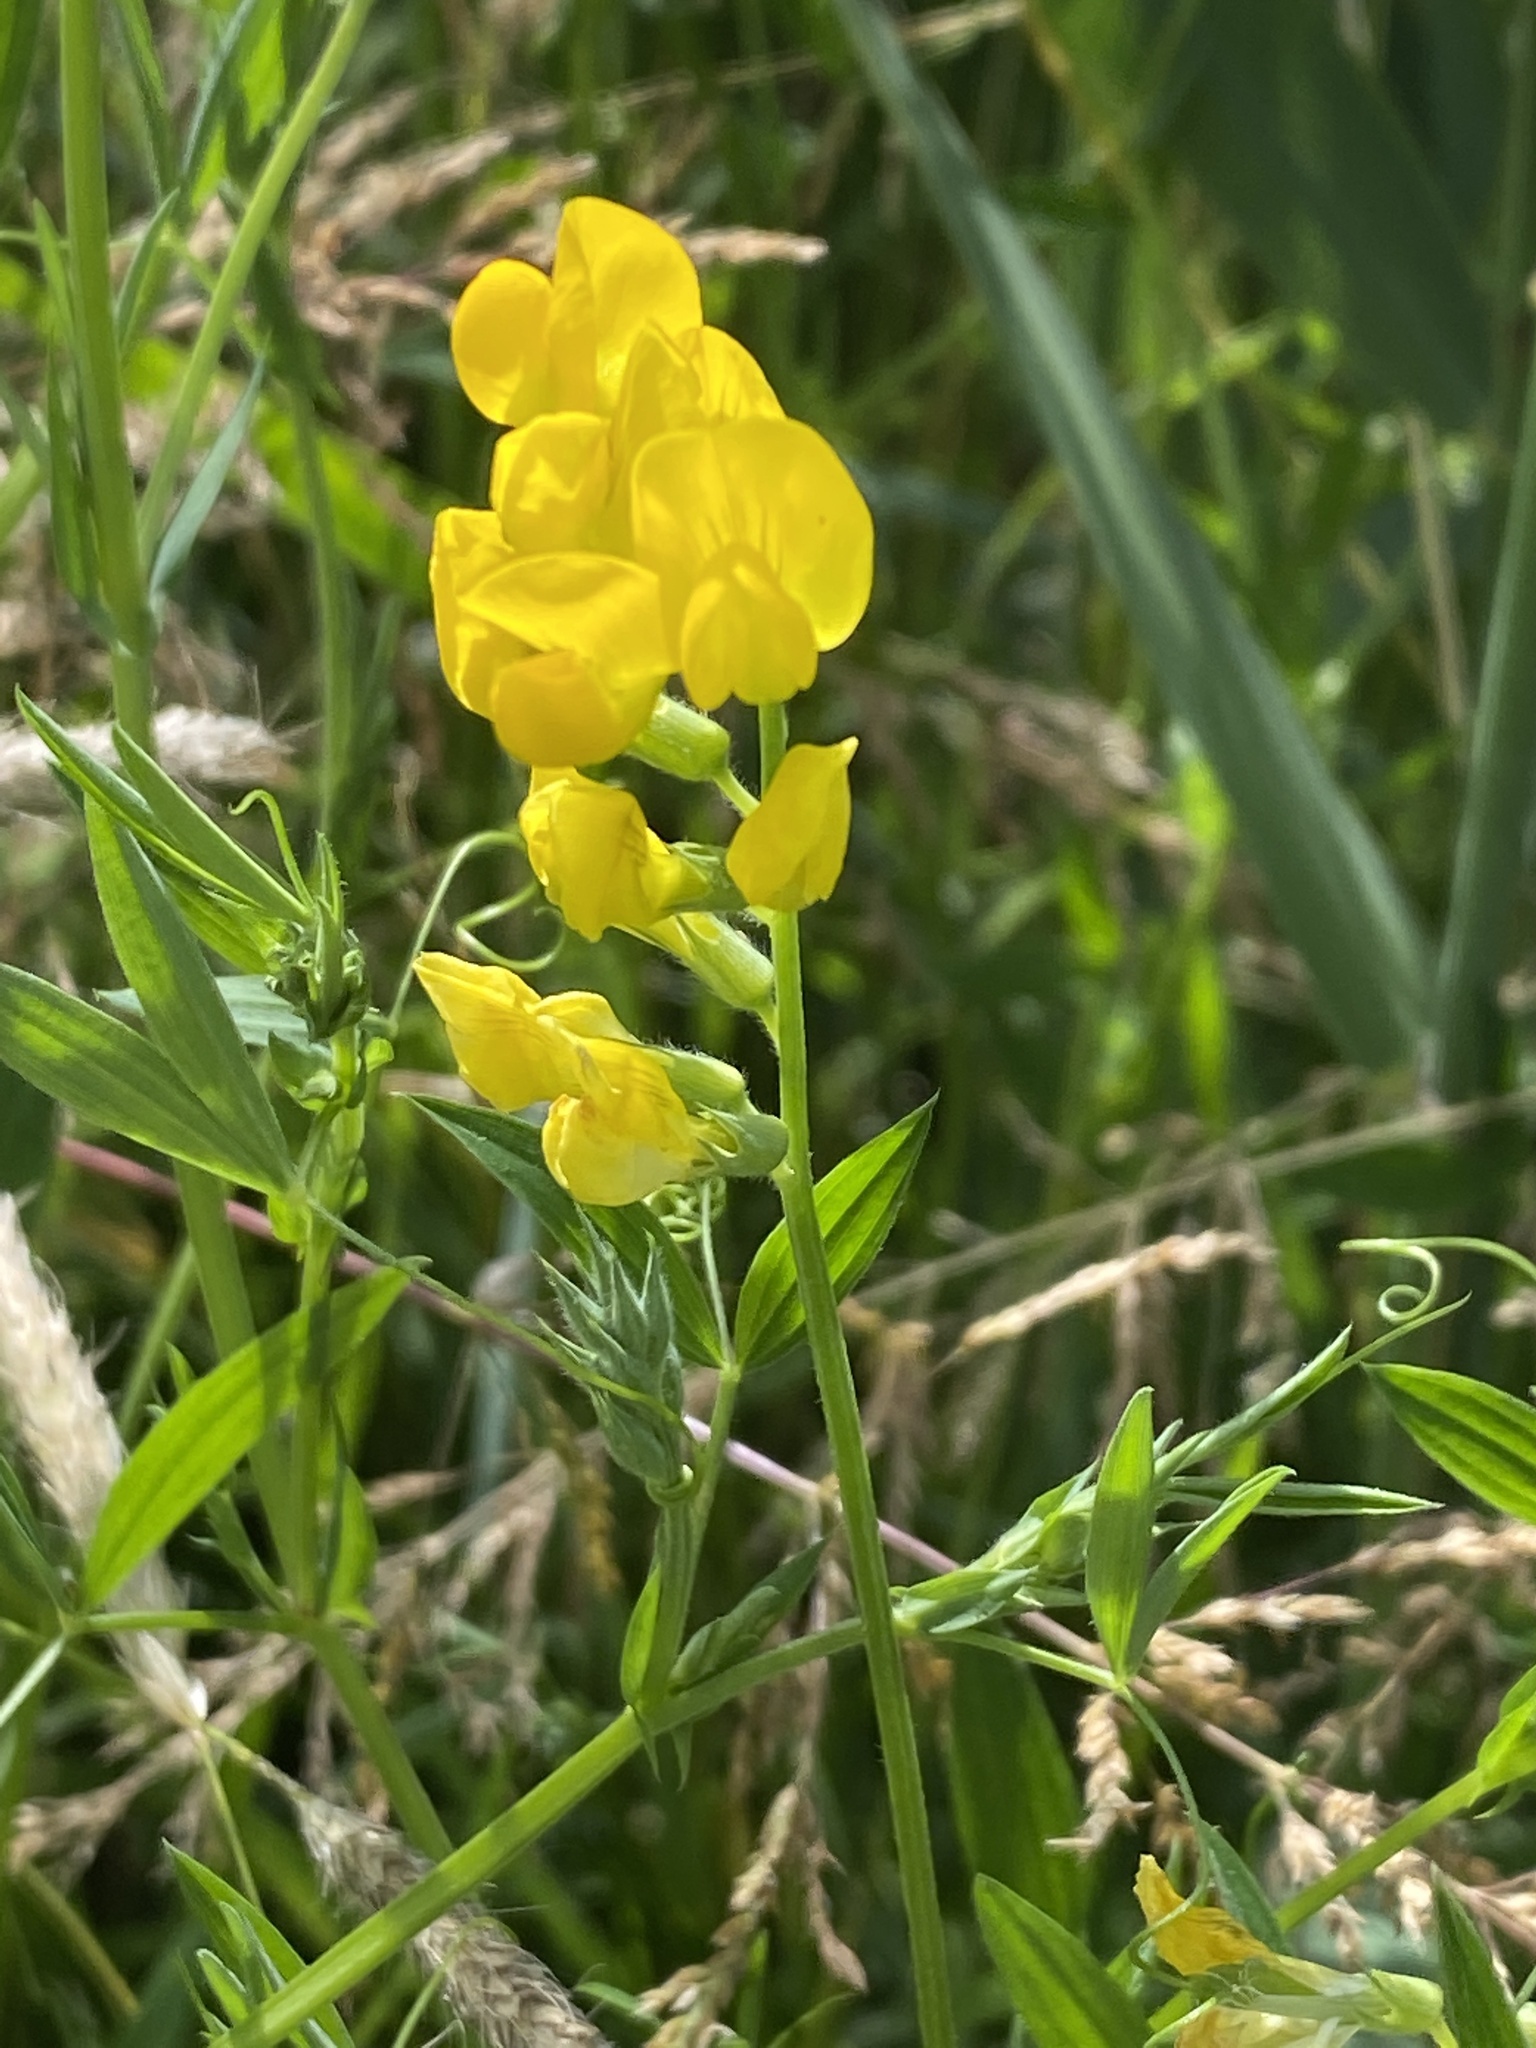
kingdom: Plantae
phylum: Tracheophyta
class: Magnoliopsida
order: Fabales
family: Fabaceae
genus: Lathyrus
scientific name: Lathyrus pratensis
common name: Meadow vetchling
